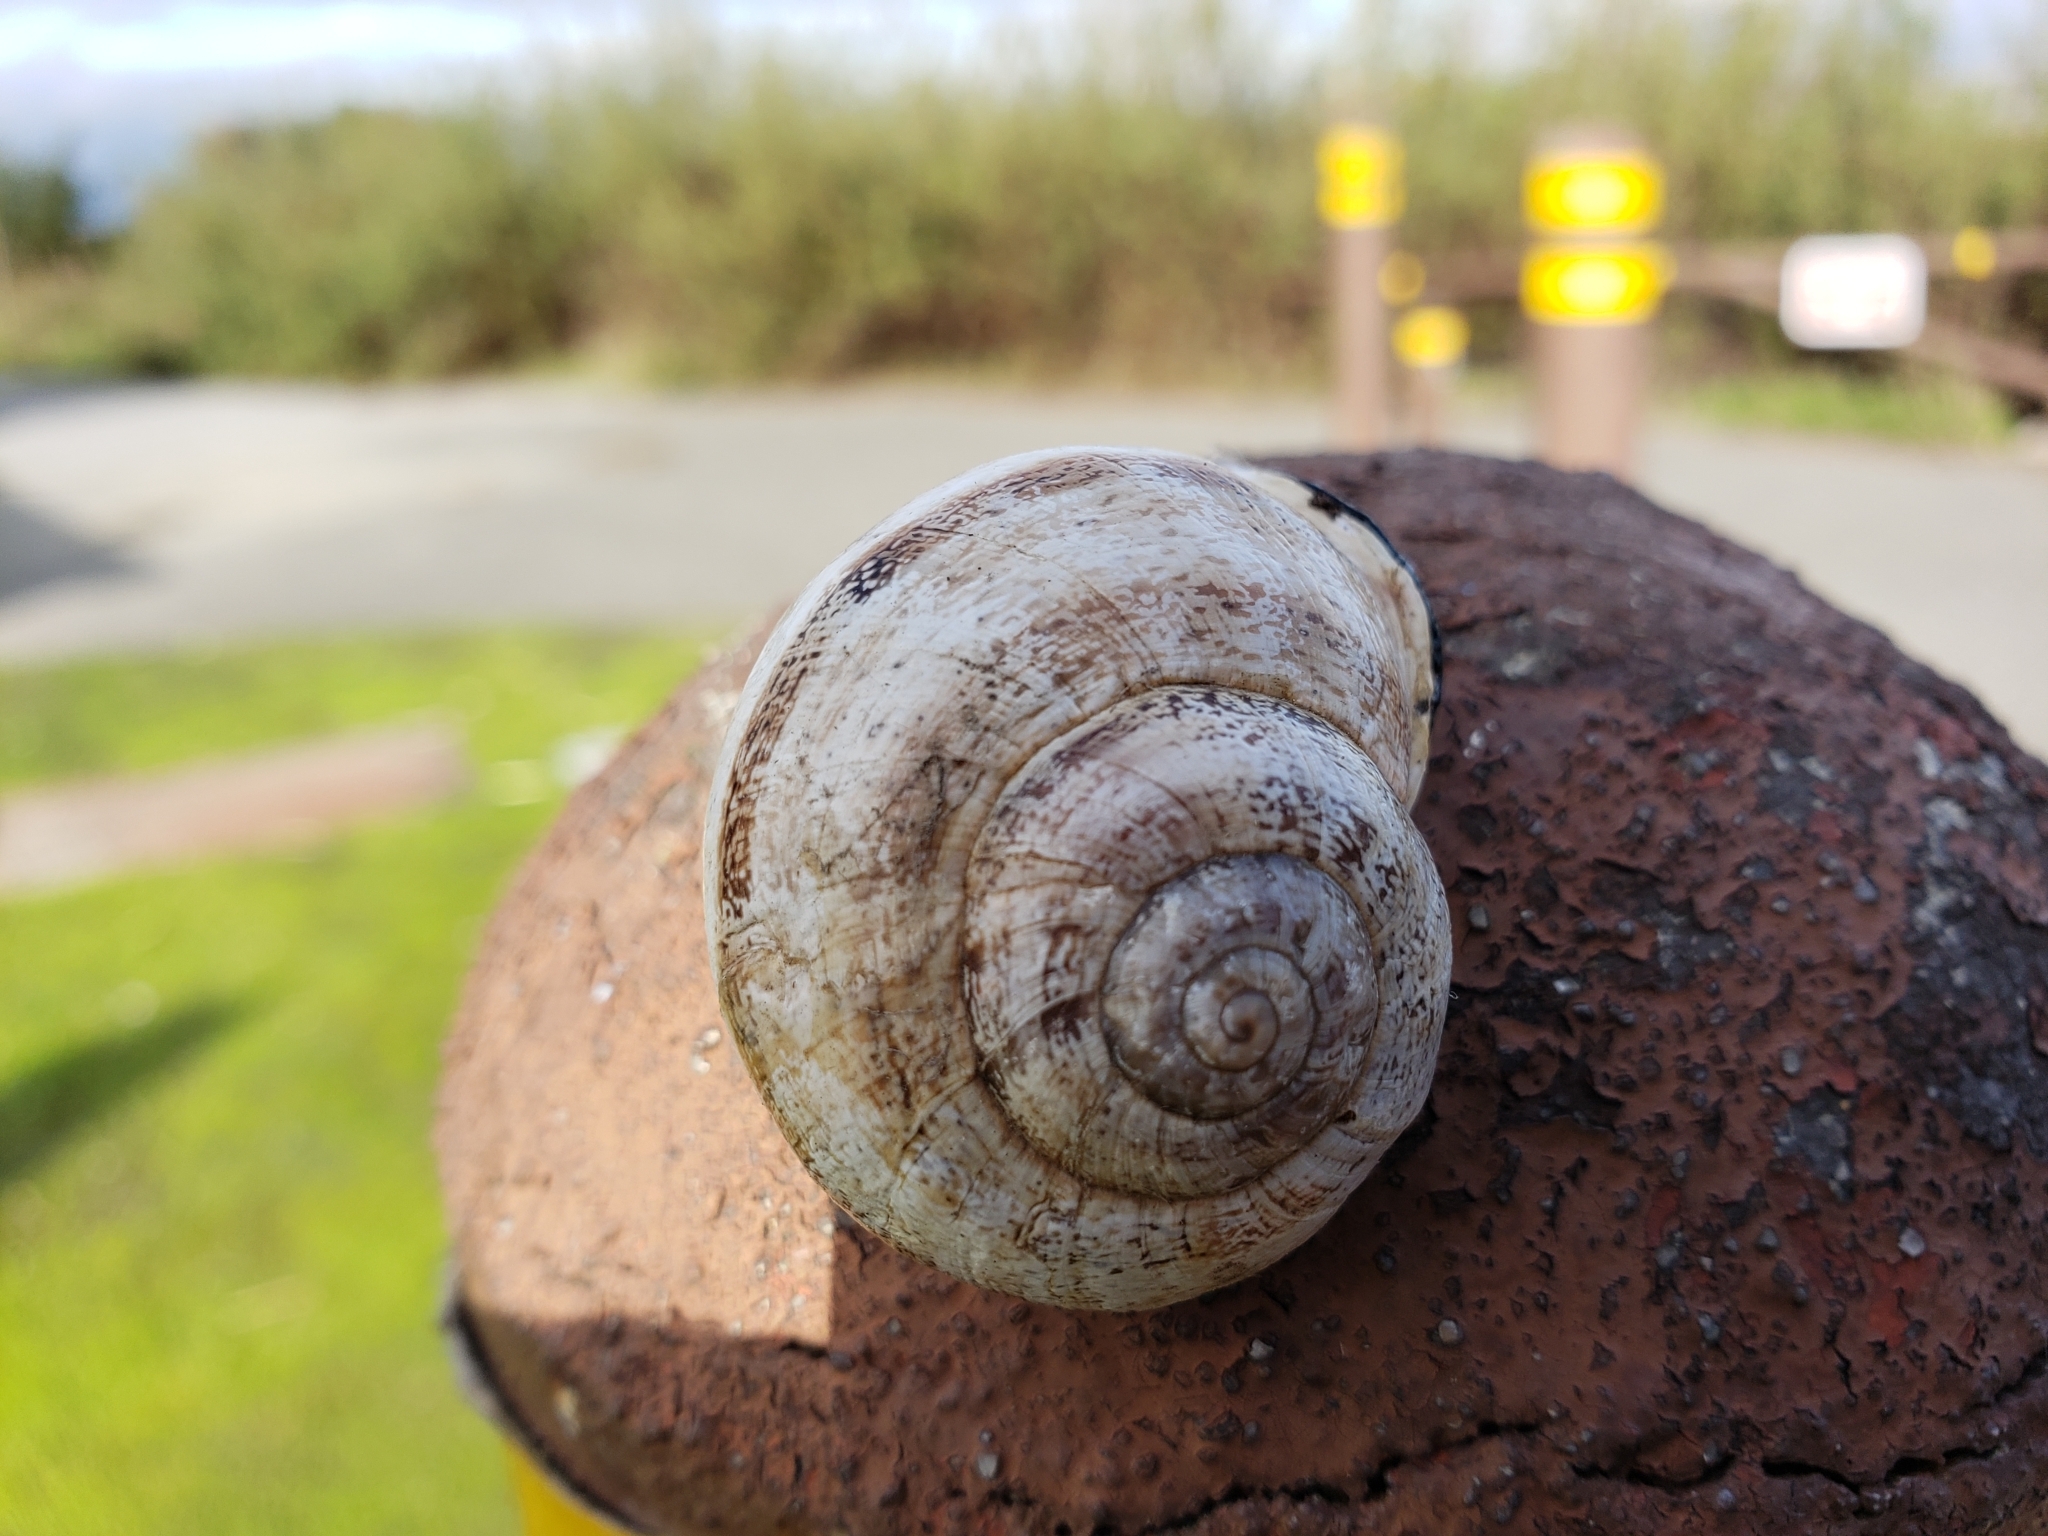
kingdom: Animalia
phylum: Mollusca
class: Gastropoda
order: Stylommatophora
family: Helicidae
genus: Otala
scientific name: Otala lactea
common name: Milk snail
